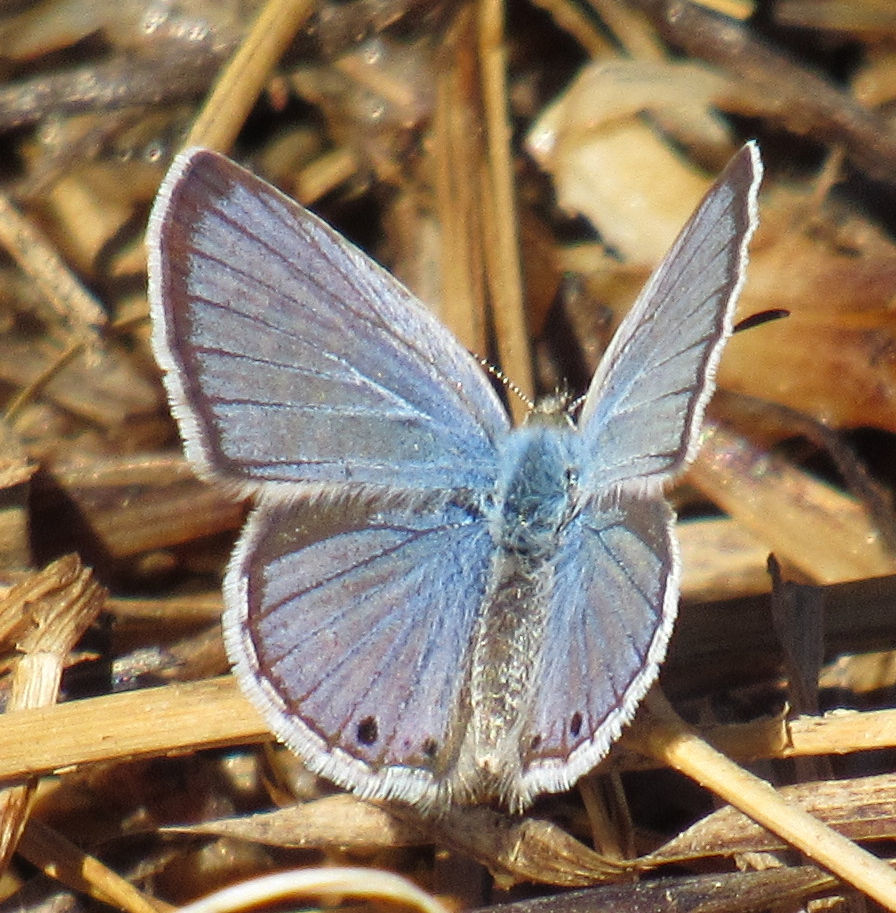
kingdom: Animalia
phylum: Arthropoda
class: Insecta
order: Lepidoptera
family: Lycaenidae
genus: Echinargus
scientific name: Echinargus isola
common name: Reakirt's blue
